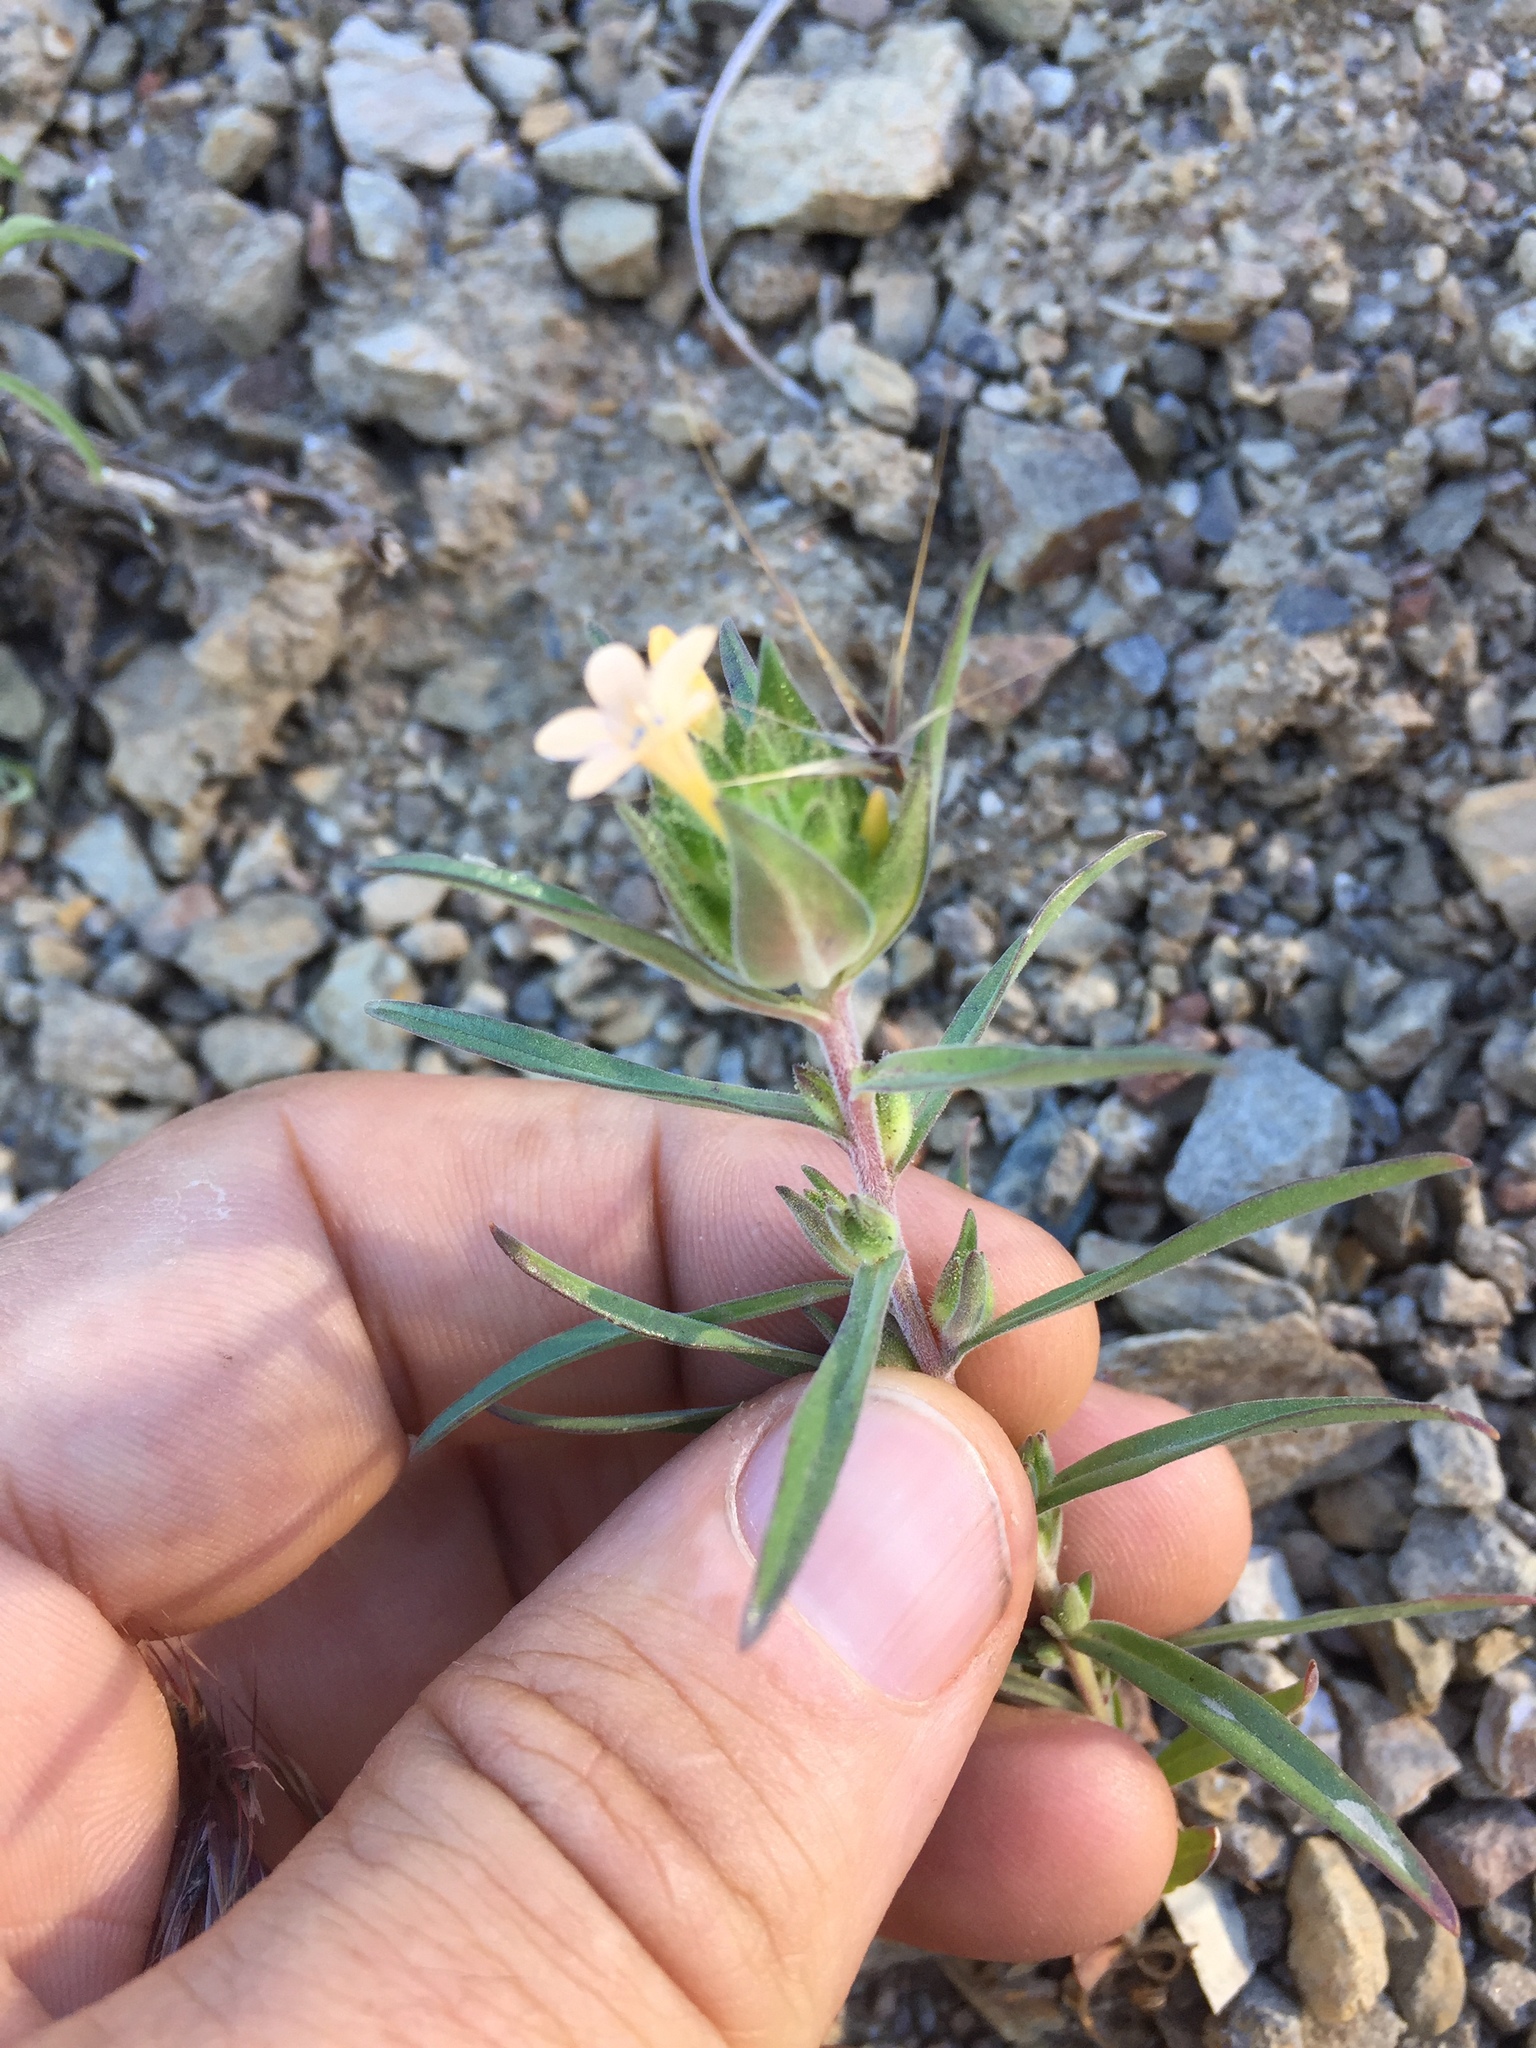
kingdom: Plantae
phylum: Tracheophyta
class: Magnoliopsida
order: Ericales
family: Polemoniaceae
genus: Collomia
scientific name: Collomia grandiflora
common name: California strawflower
